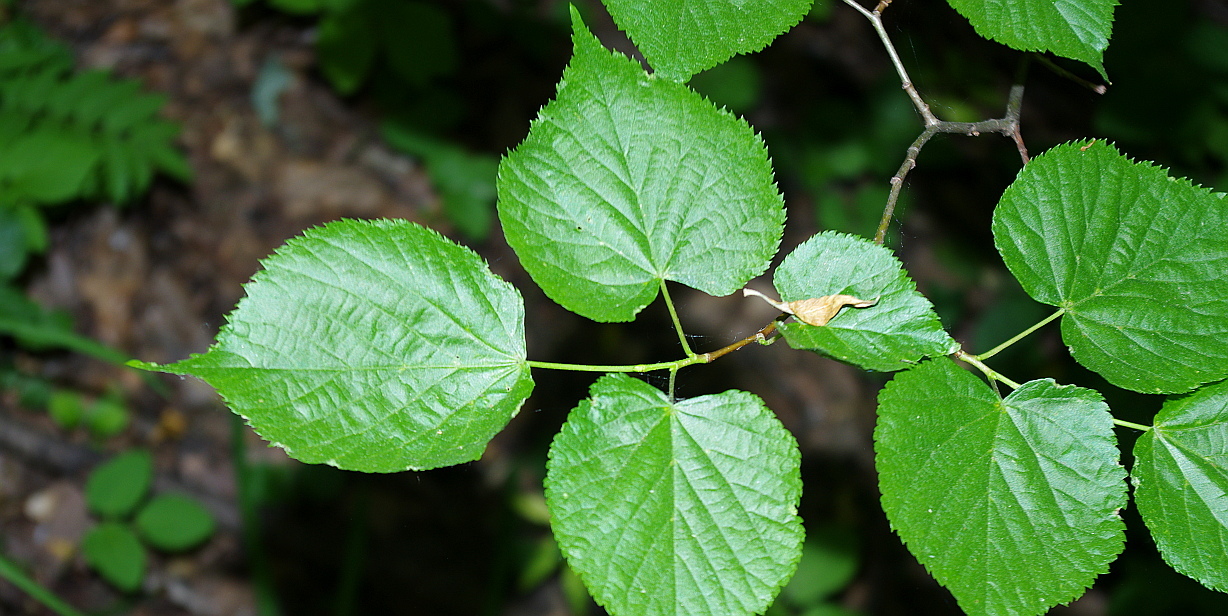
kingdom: Plantae
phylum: Tracheophyta
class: Magnoliopsida
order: Malvales
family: Malvaceae
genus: Tilia
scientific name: Tilia cordata
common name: Small-leaved lime
